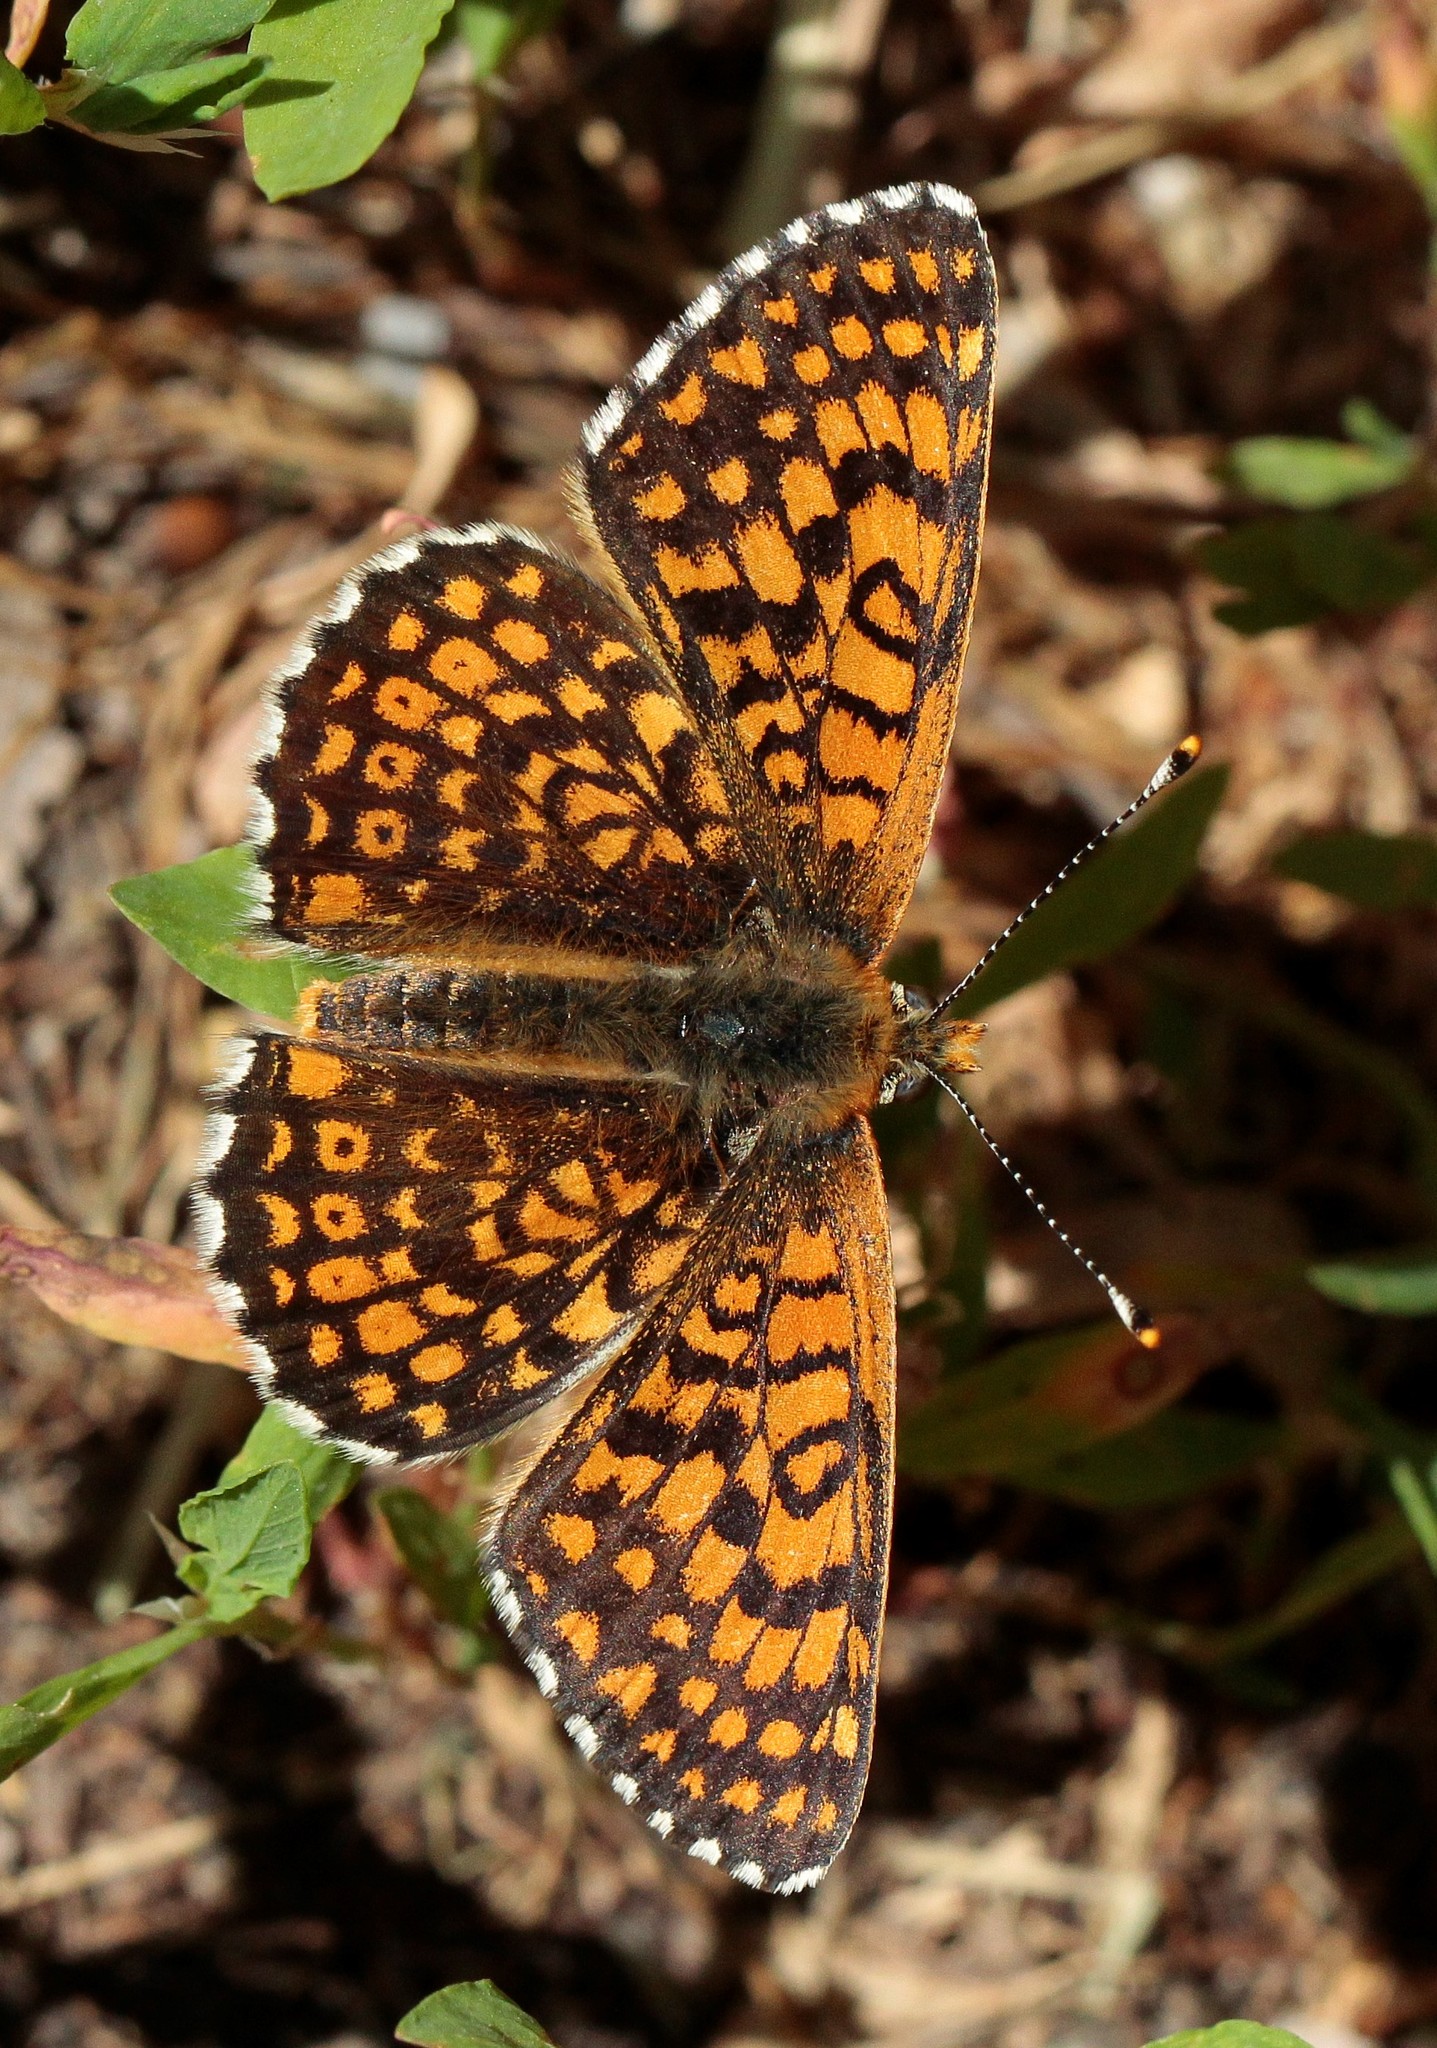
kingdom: Animalia
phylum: Arthropoda
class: Insecta
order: Lepidoptera
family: Nymphalidae
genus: Melitaea
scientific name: Melitaea cinxia
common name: Glanville fritillary
